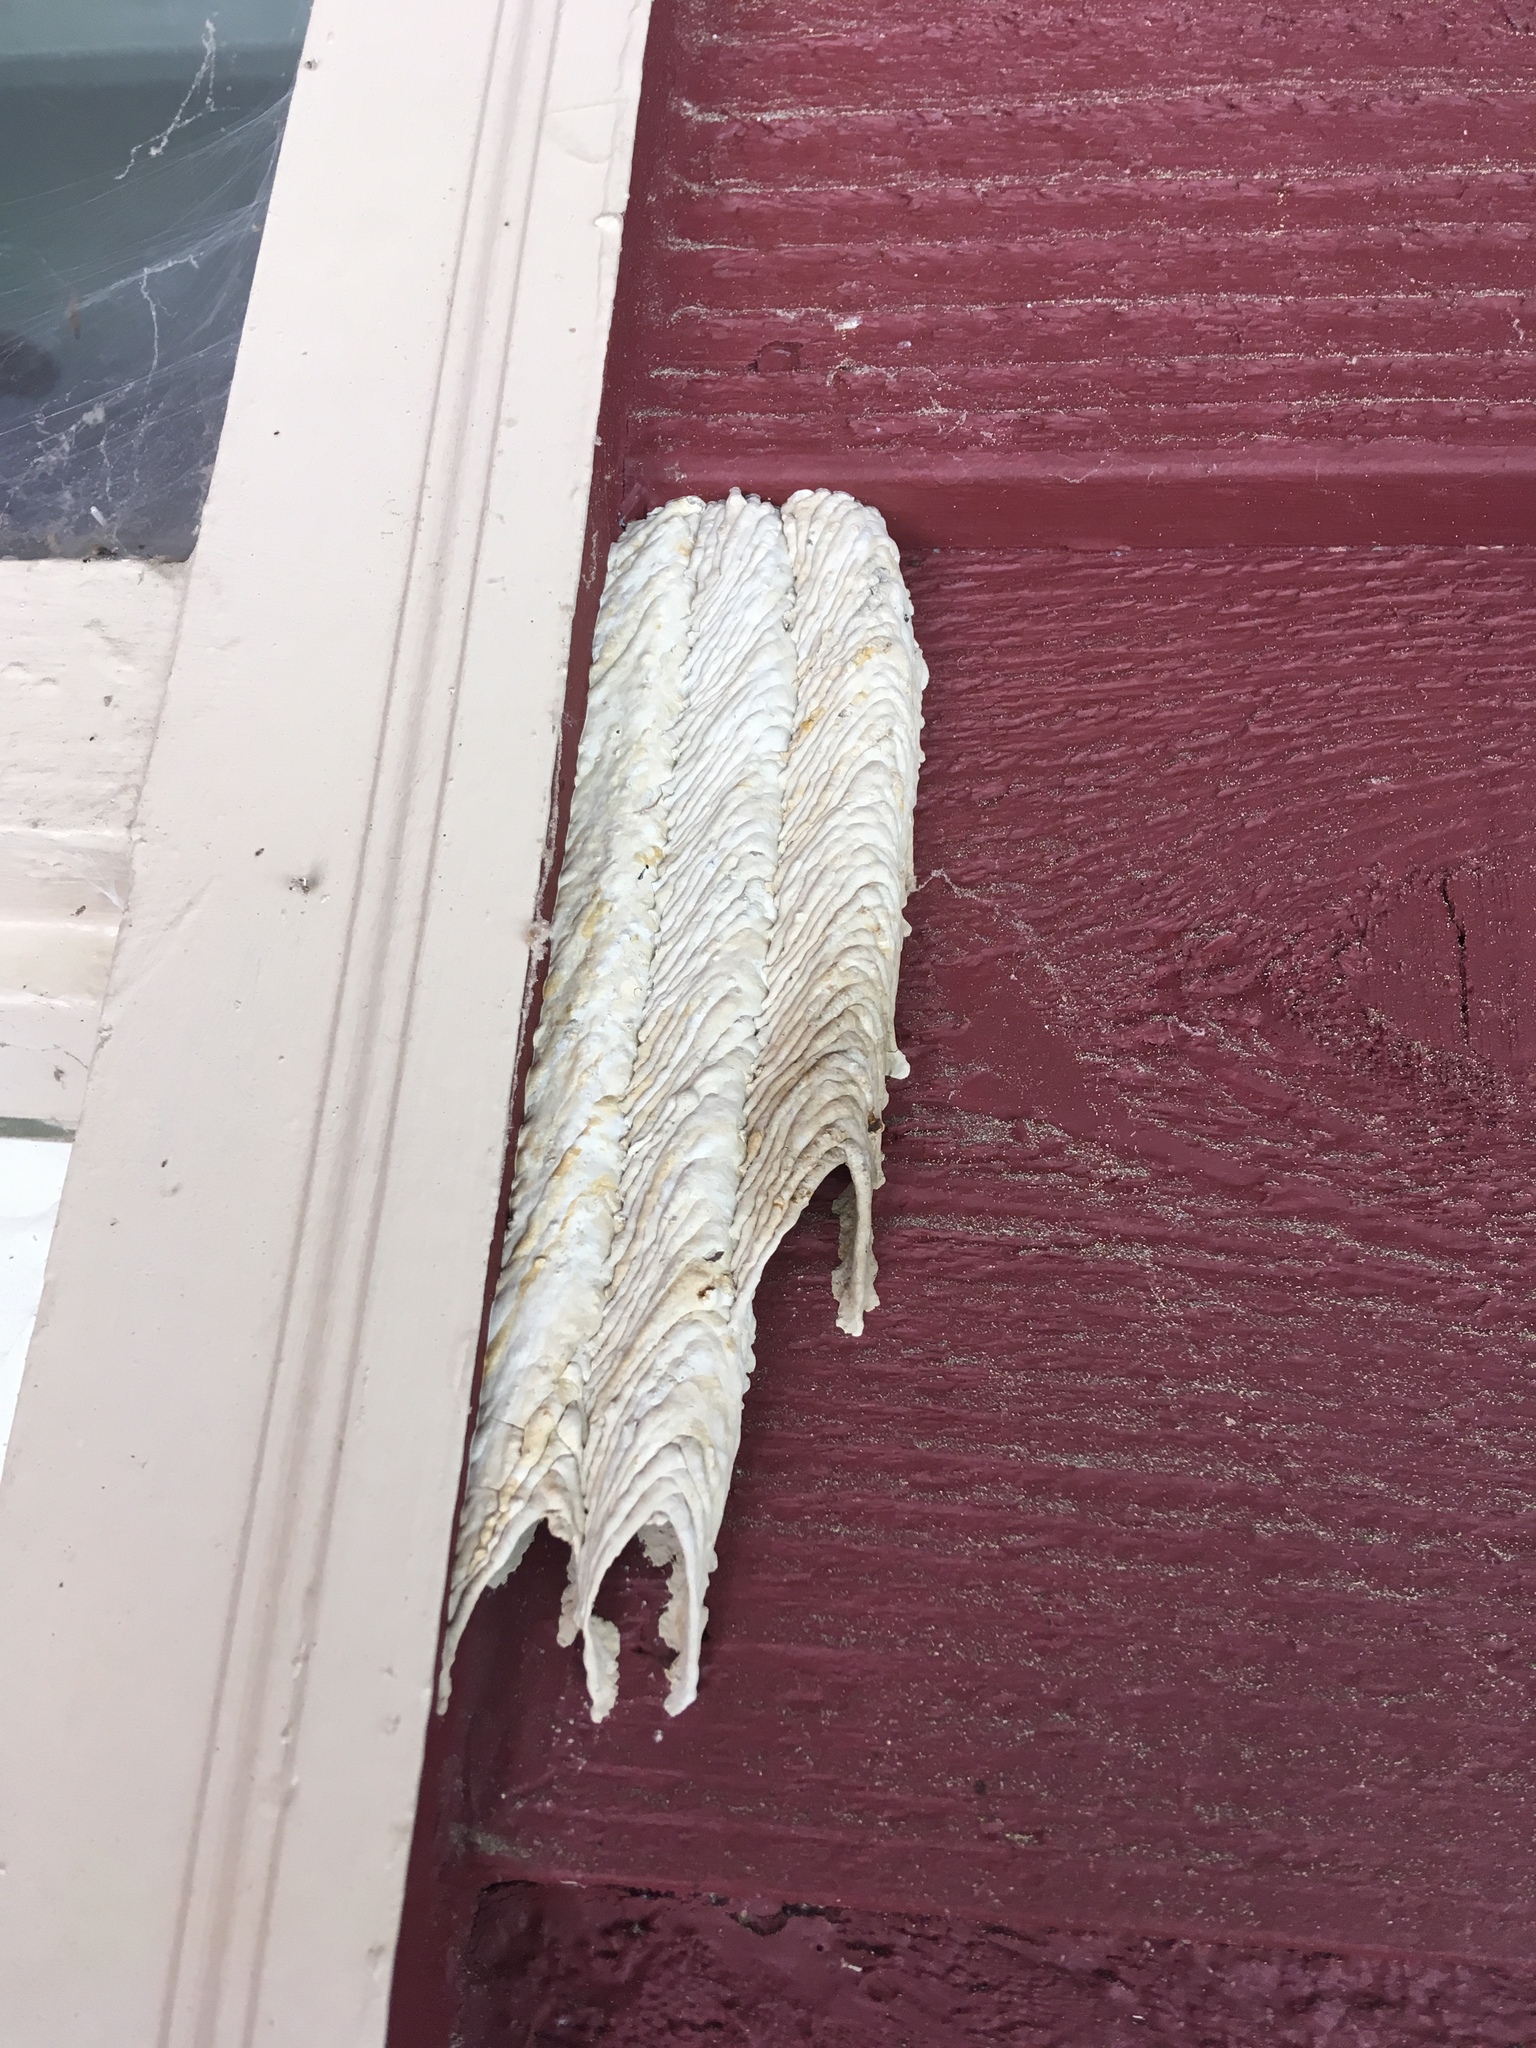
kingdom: Animalia
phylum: Arthropoda
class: Insecta
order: Hymenoptera
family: Crabronidae
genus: Trypoxylon
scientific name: Trypoxylon politum
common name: Organ-pipe mud-dauber wasp
